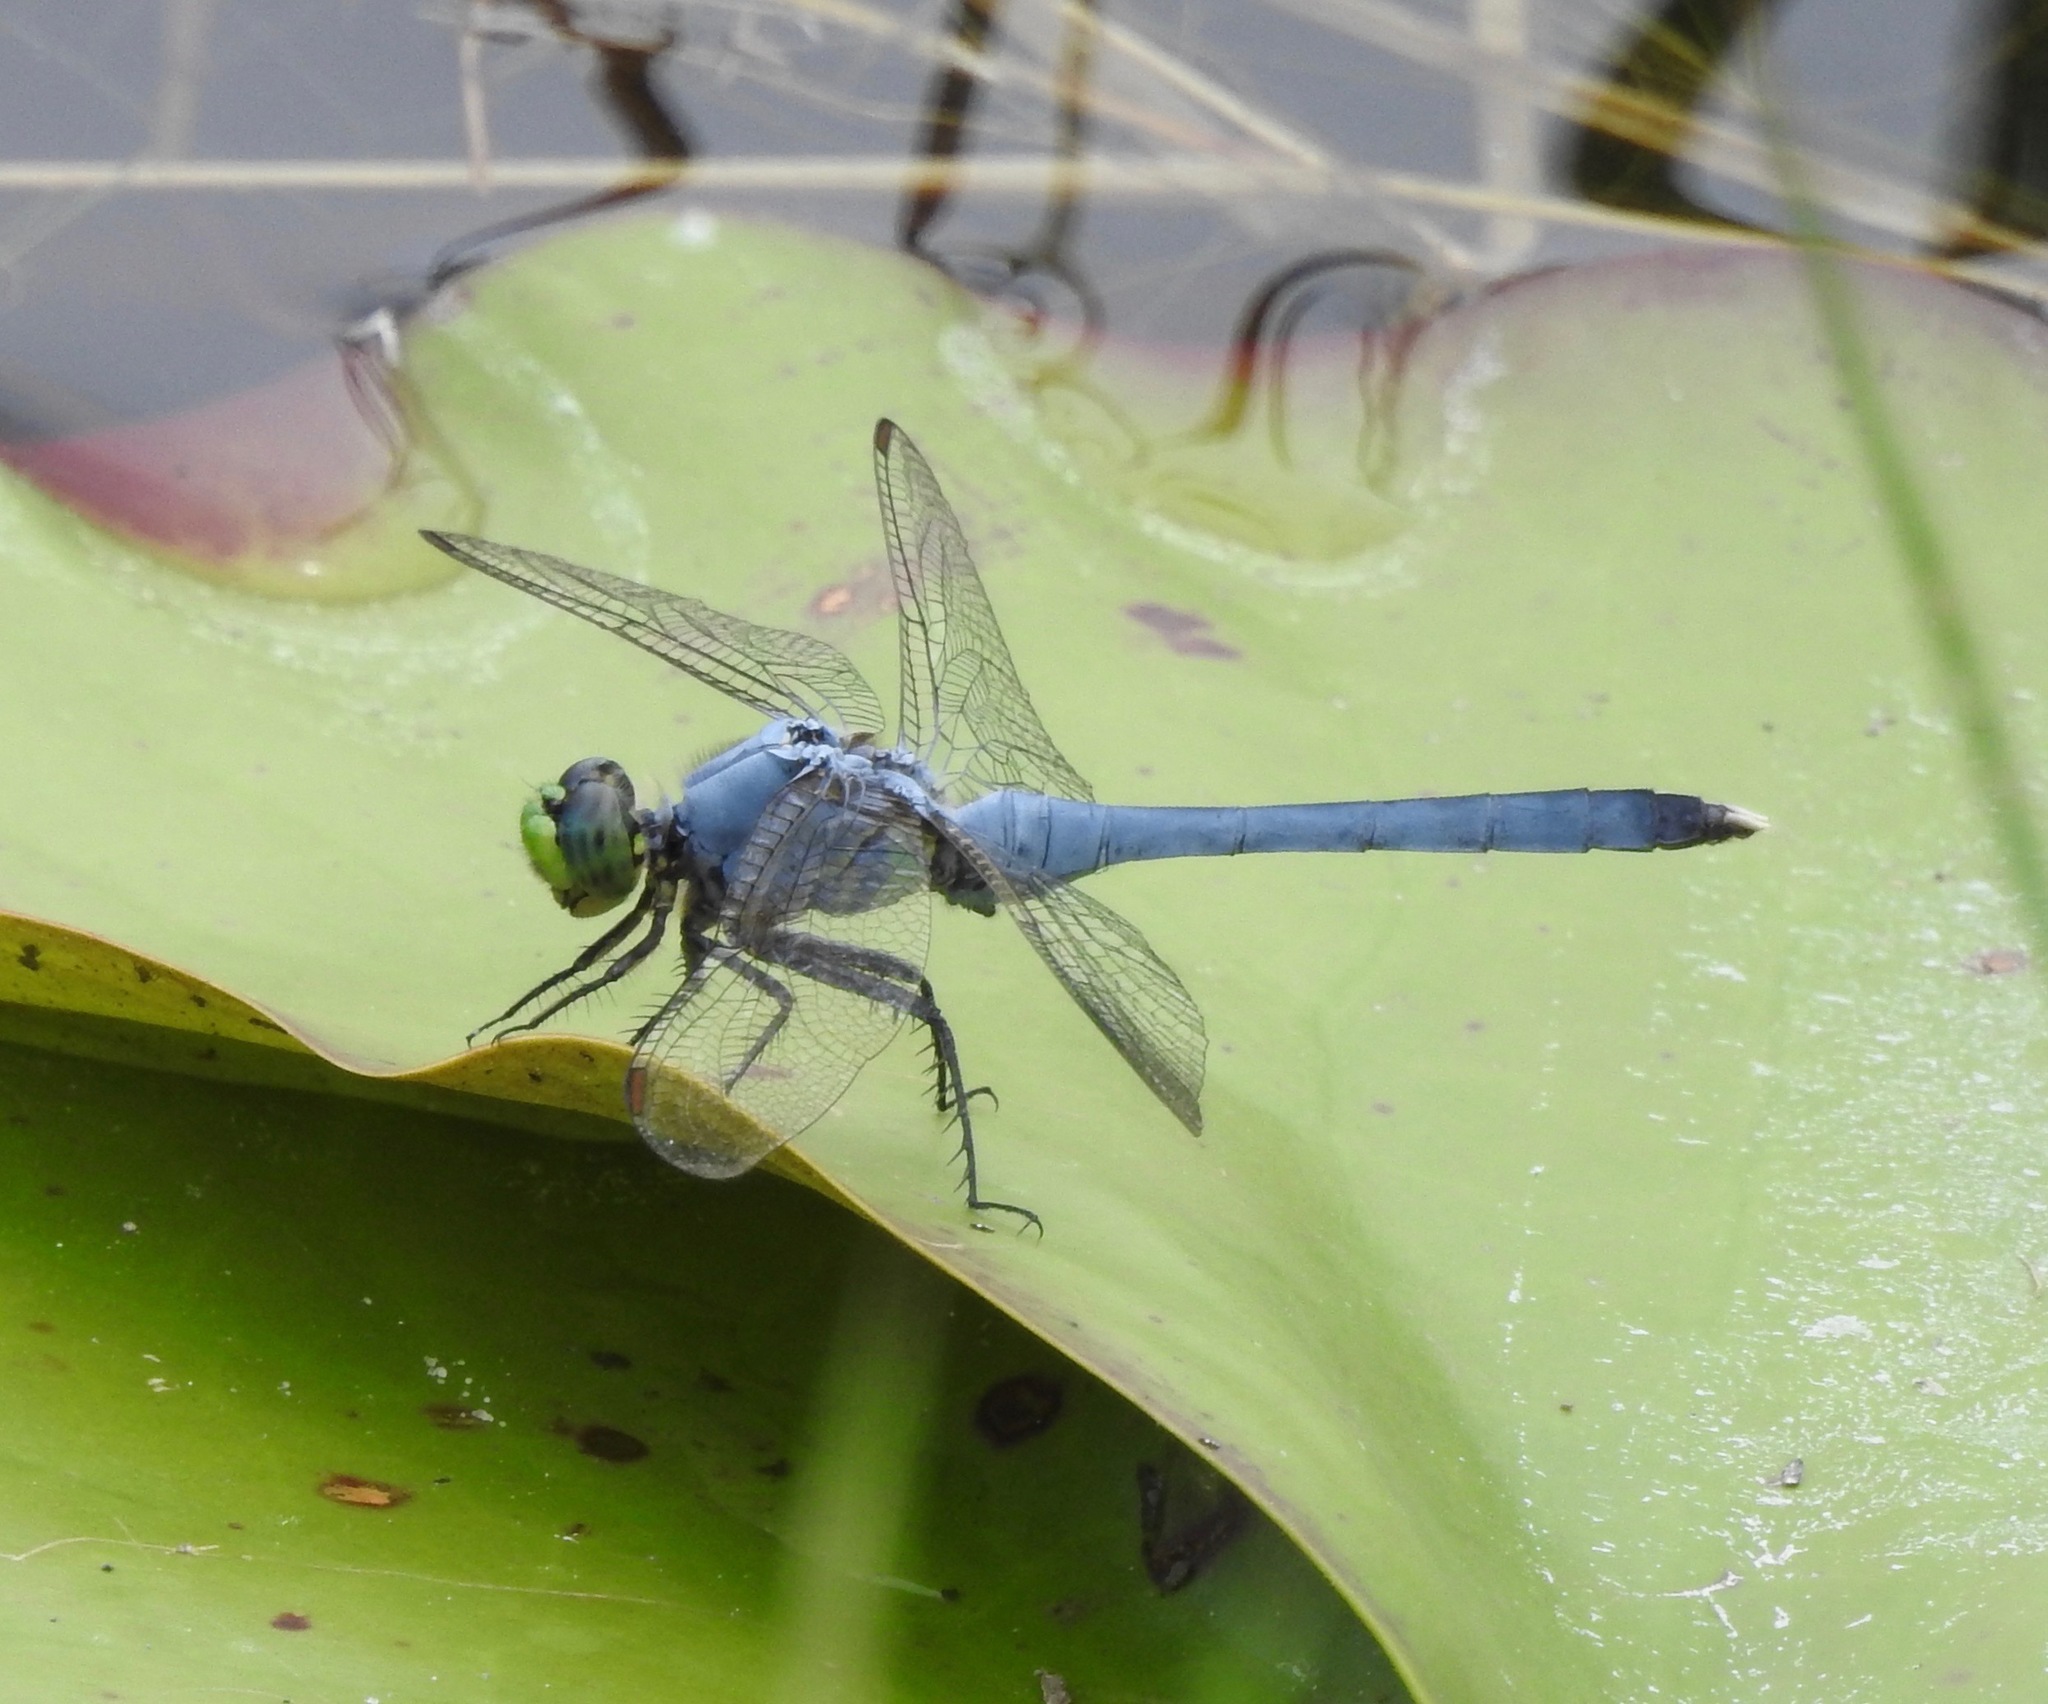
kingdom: Animalia
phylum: Arthropoda
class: Insecta
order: Odonata
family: Libellulidae
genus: Erythemis
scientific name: Erythemis simplicicollis
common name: Eastern pondhawk
